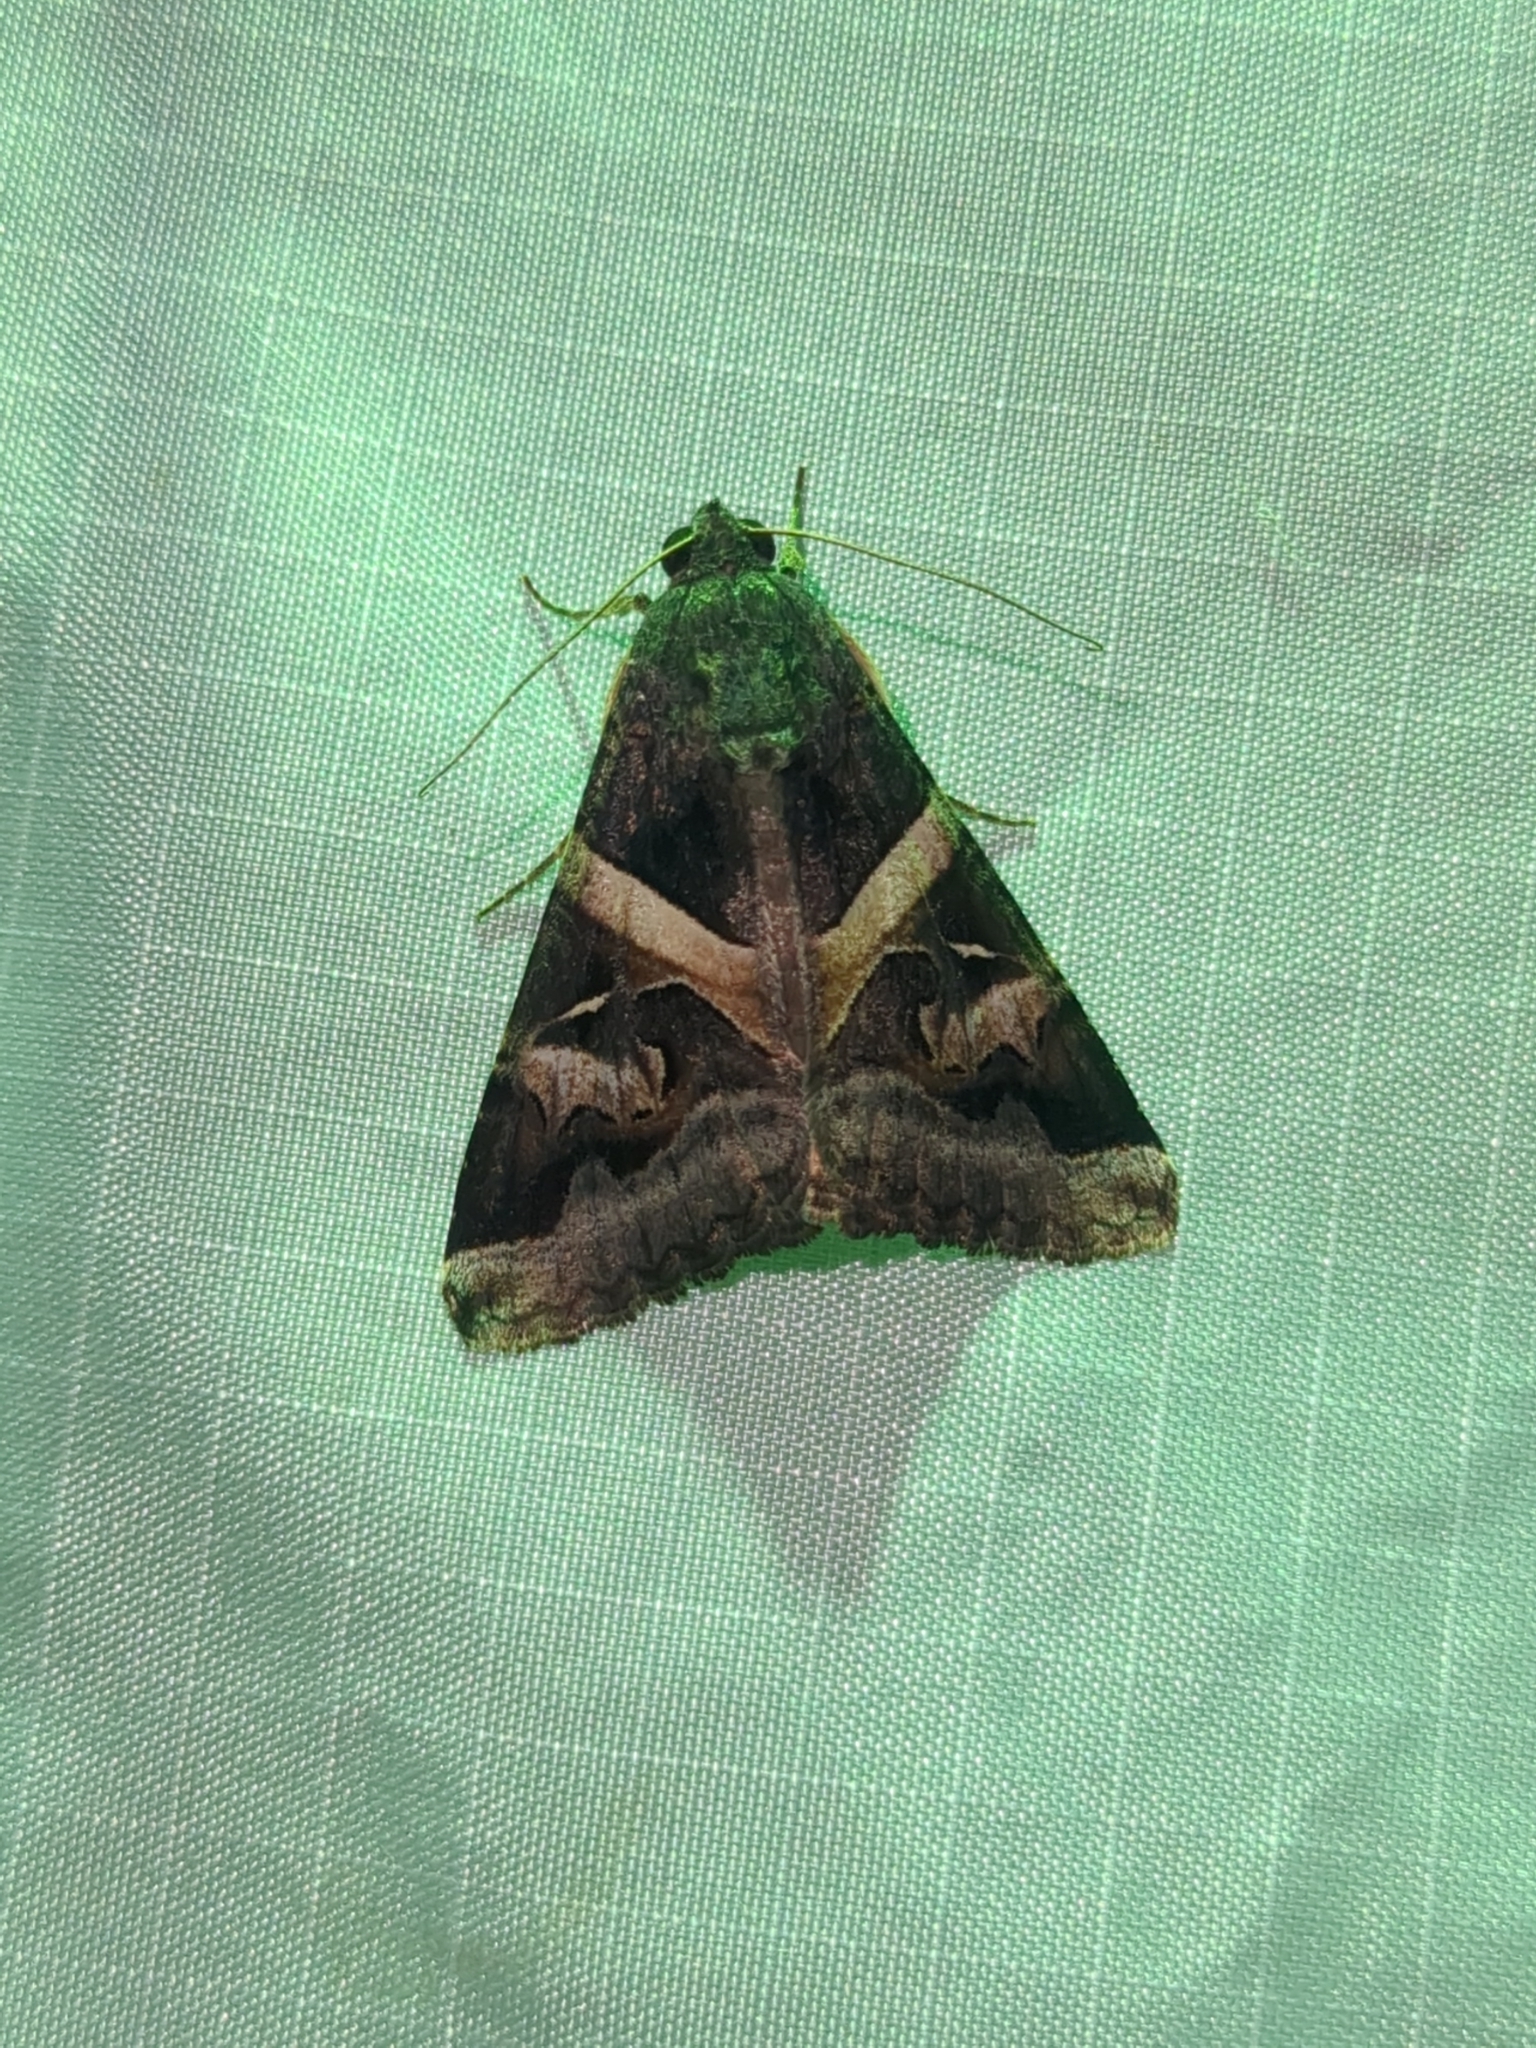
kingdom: Animalia
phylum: Arthropoda
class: Insecta
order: Lepidoptera
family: Erebidae
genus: Melipotis
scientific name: Melipotis indomita
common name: Moth
